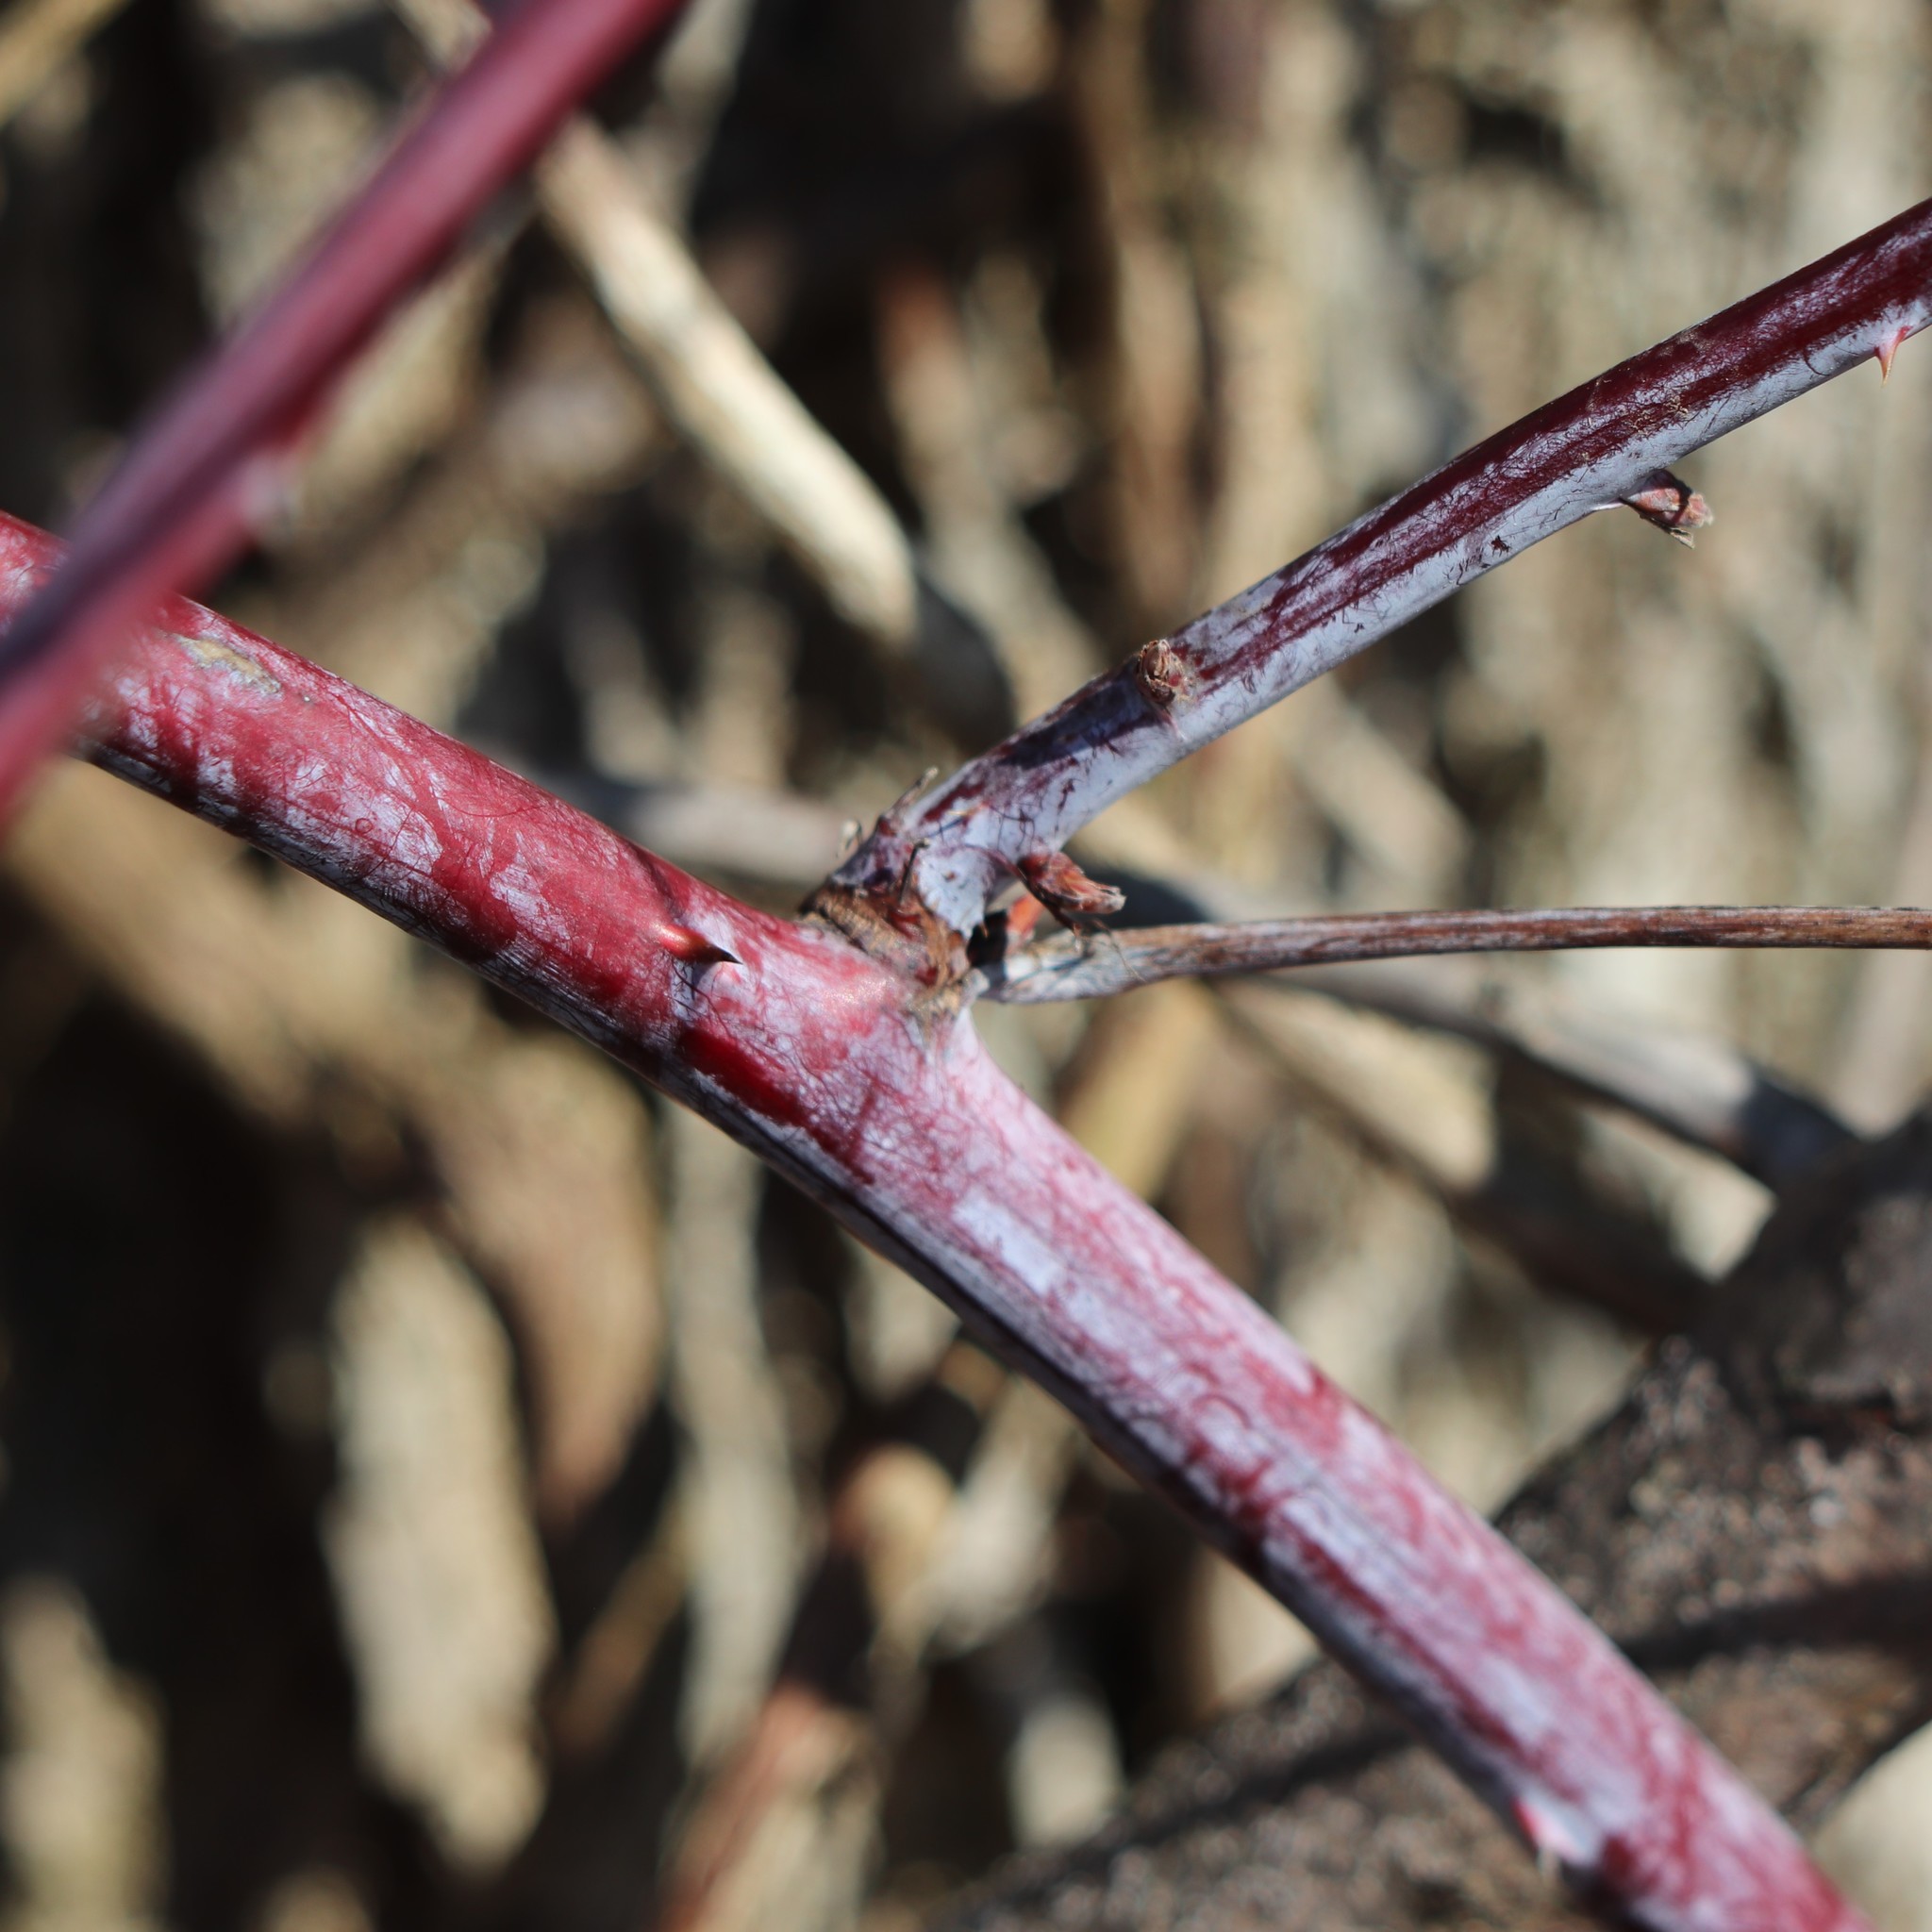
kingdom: Plantae
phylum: Tracheophyta
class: Magnoliopsida
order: Rosales
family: Rosaceae
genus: Rubus
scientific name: Rubus occidentalis
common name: Black raspberry
